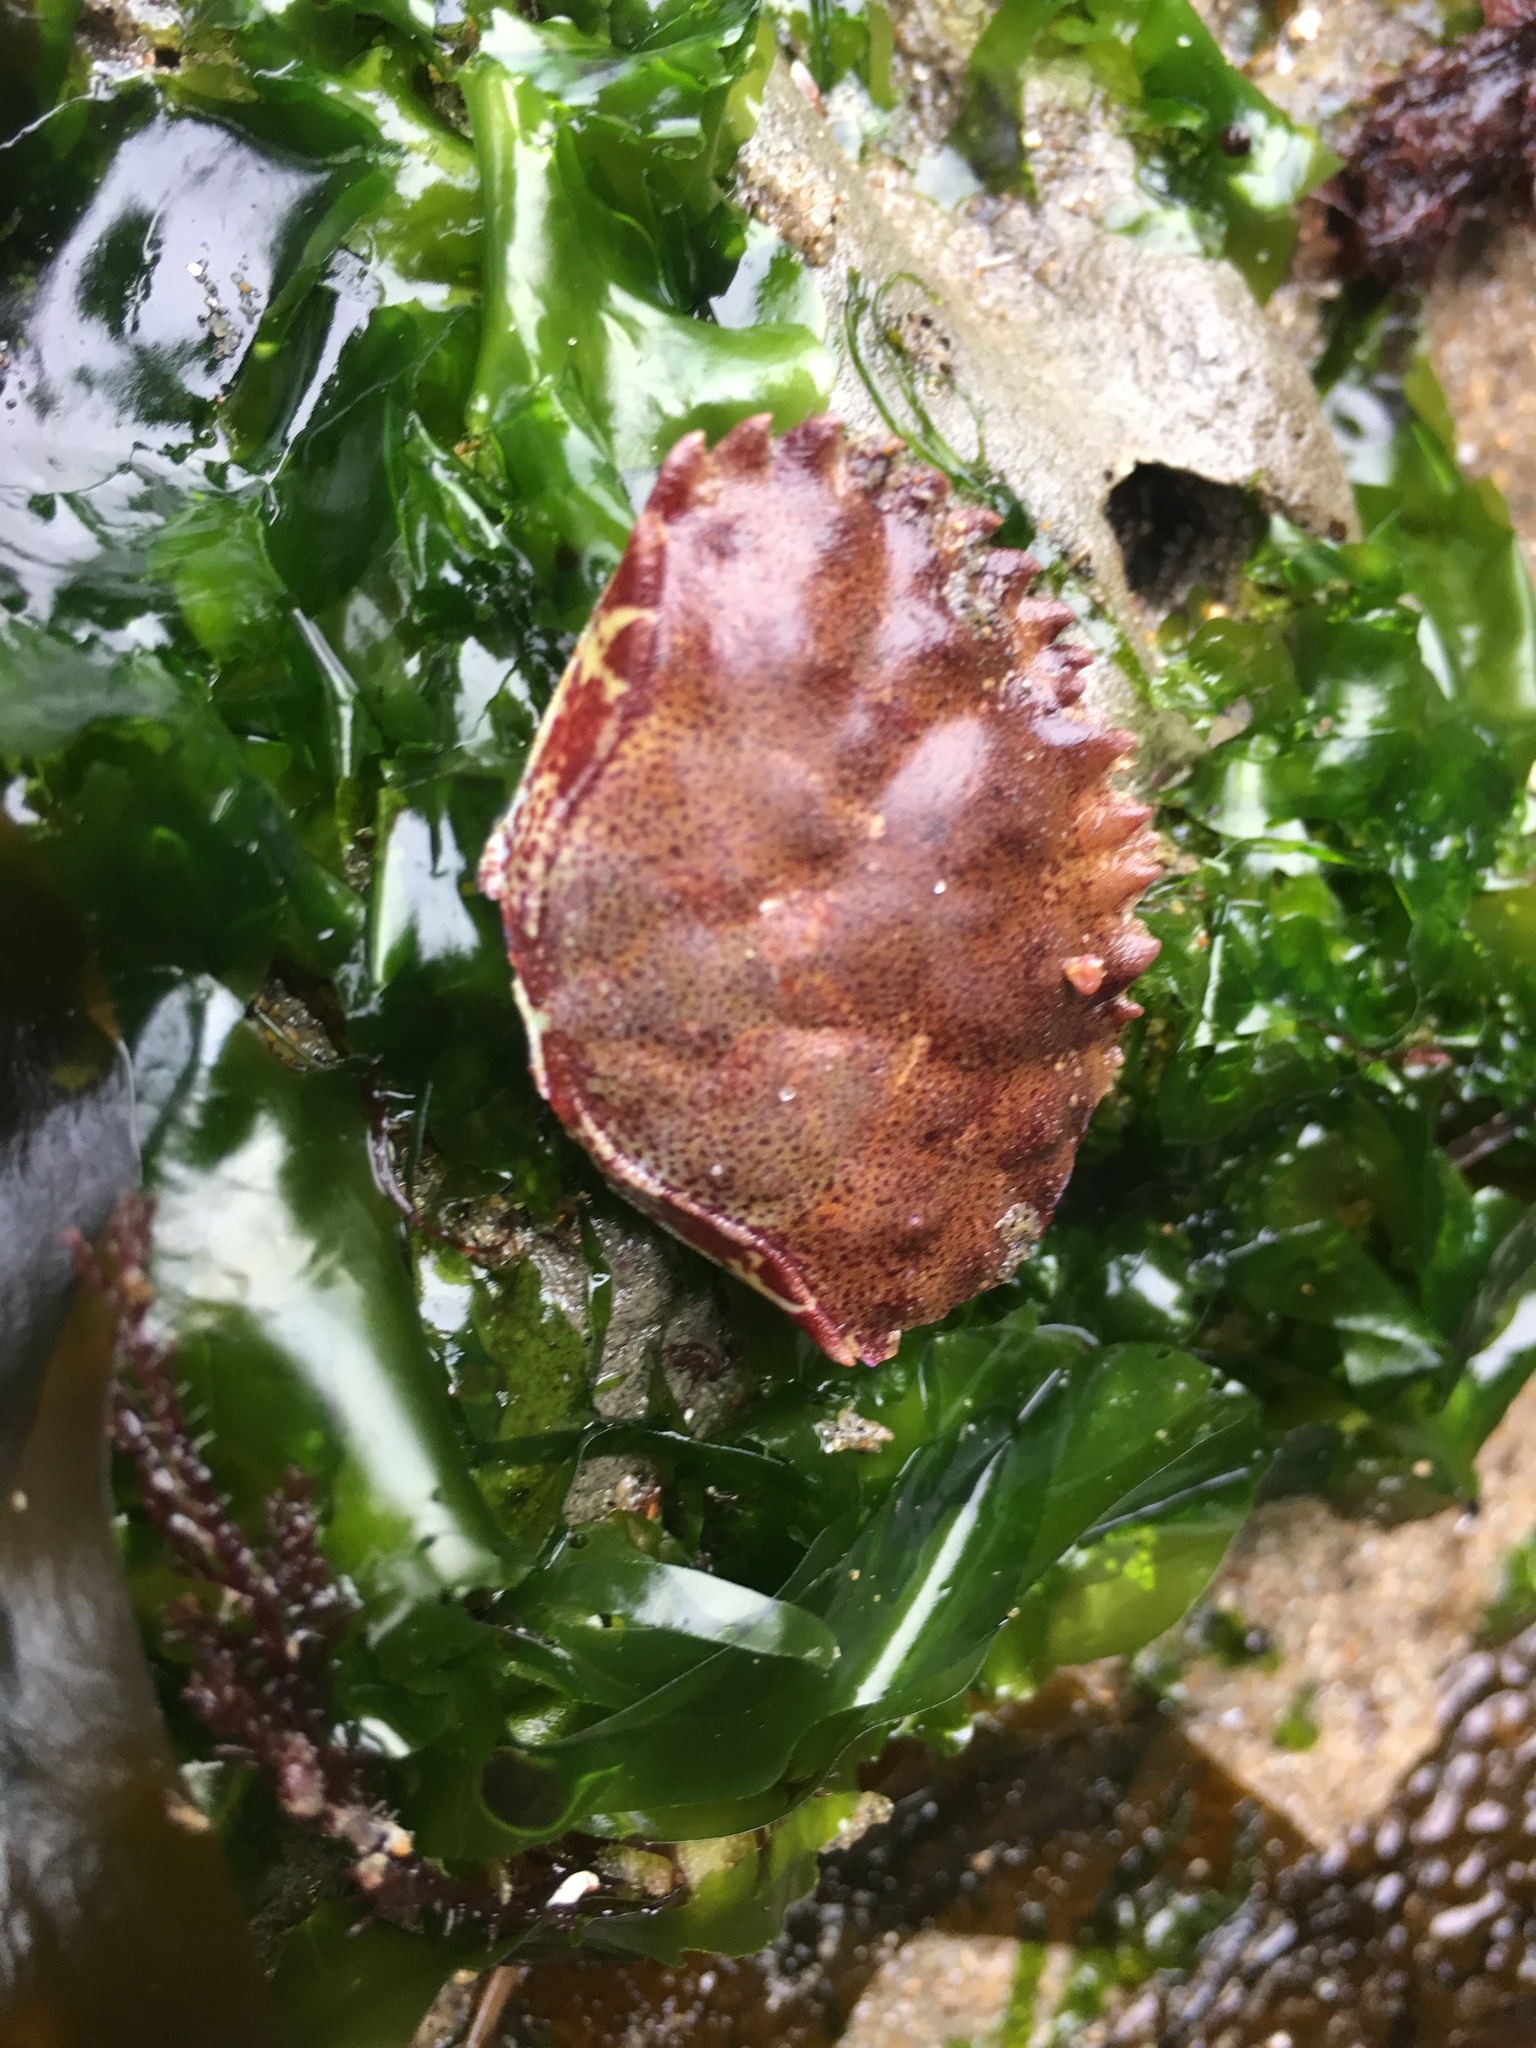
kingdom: Animalia
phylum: Arthropoda
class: Malacostraca
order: Decapoda
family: Cancridae
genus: Romaleon
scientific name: Romaleon antennarium
